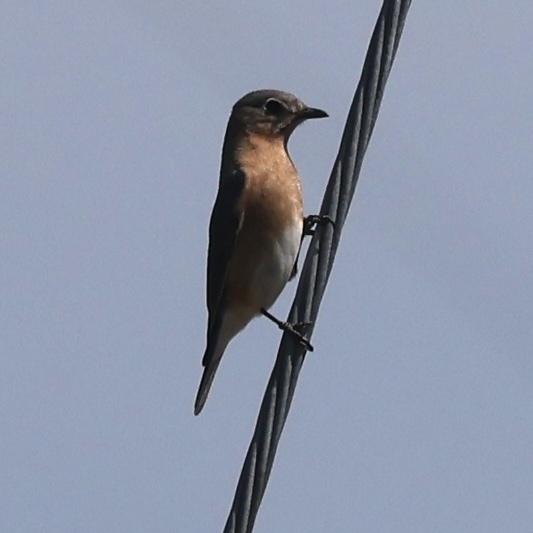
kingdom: Animalia
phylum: Chordata
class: Aves
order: Passeriformes
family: Turdidae
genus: Sialia
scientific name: Sialia sialis
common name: Eastern bluebird
